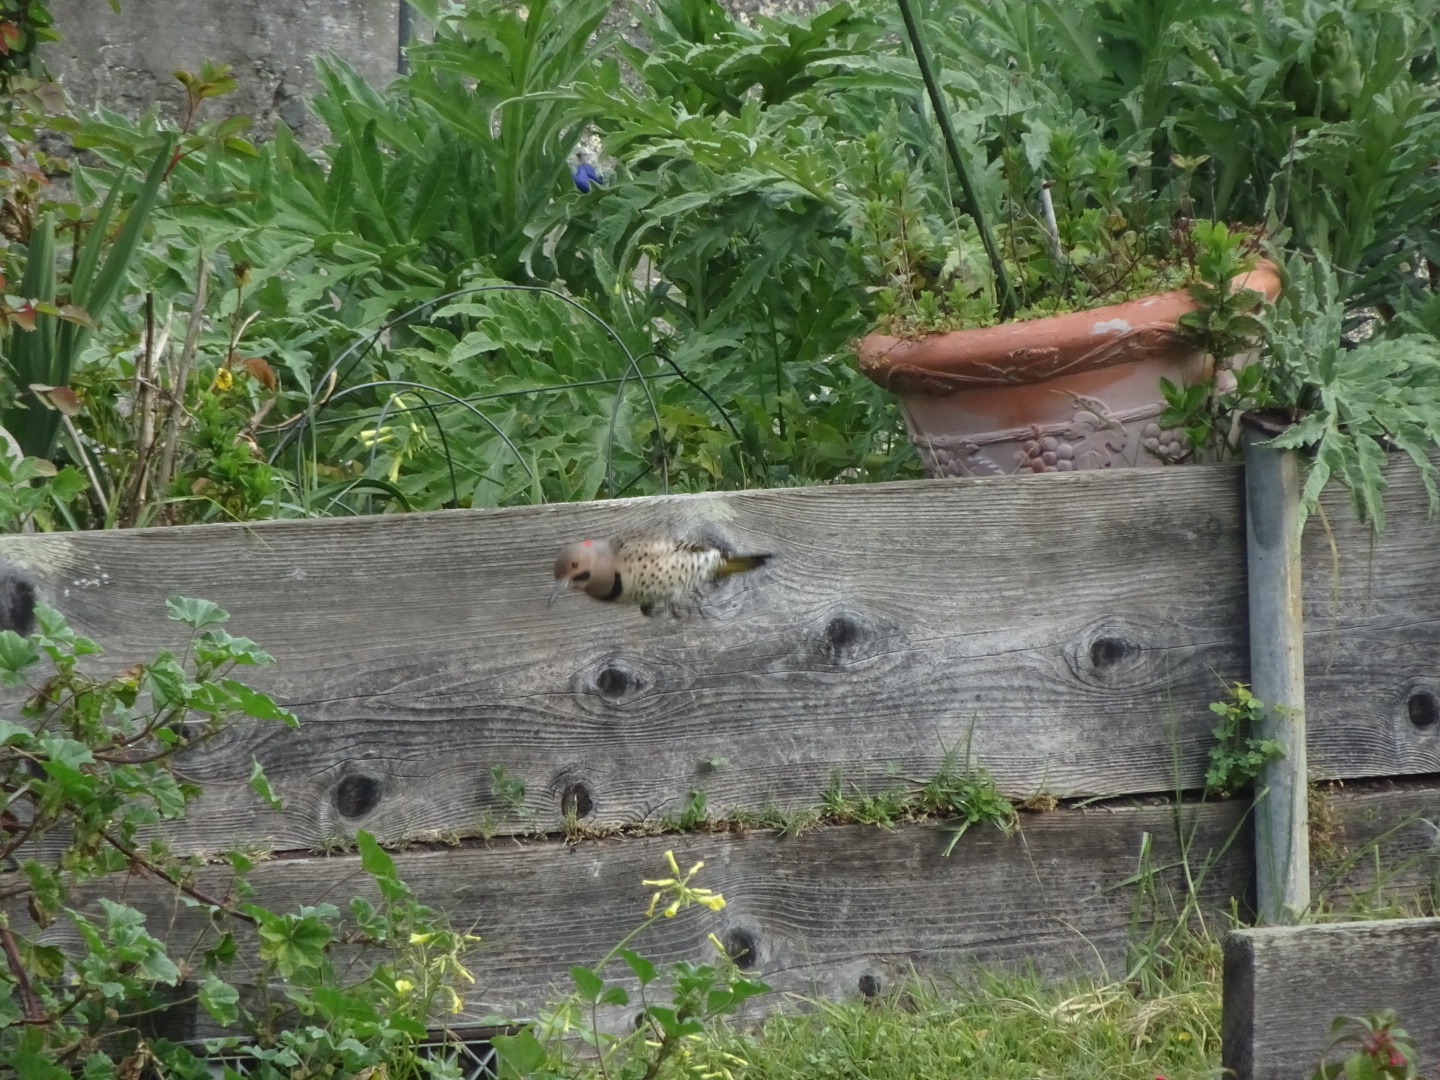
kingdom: Animalia
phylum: Chordata
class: Aves
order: Piciformes
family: Picidae
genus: Colaptes
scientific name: Colaptes auratus
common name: Northern flicker
